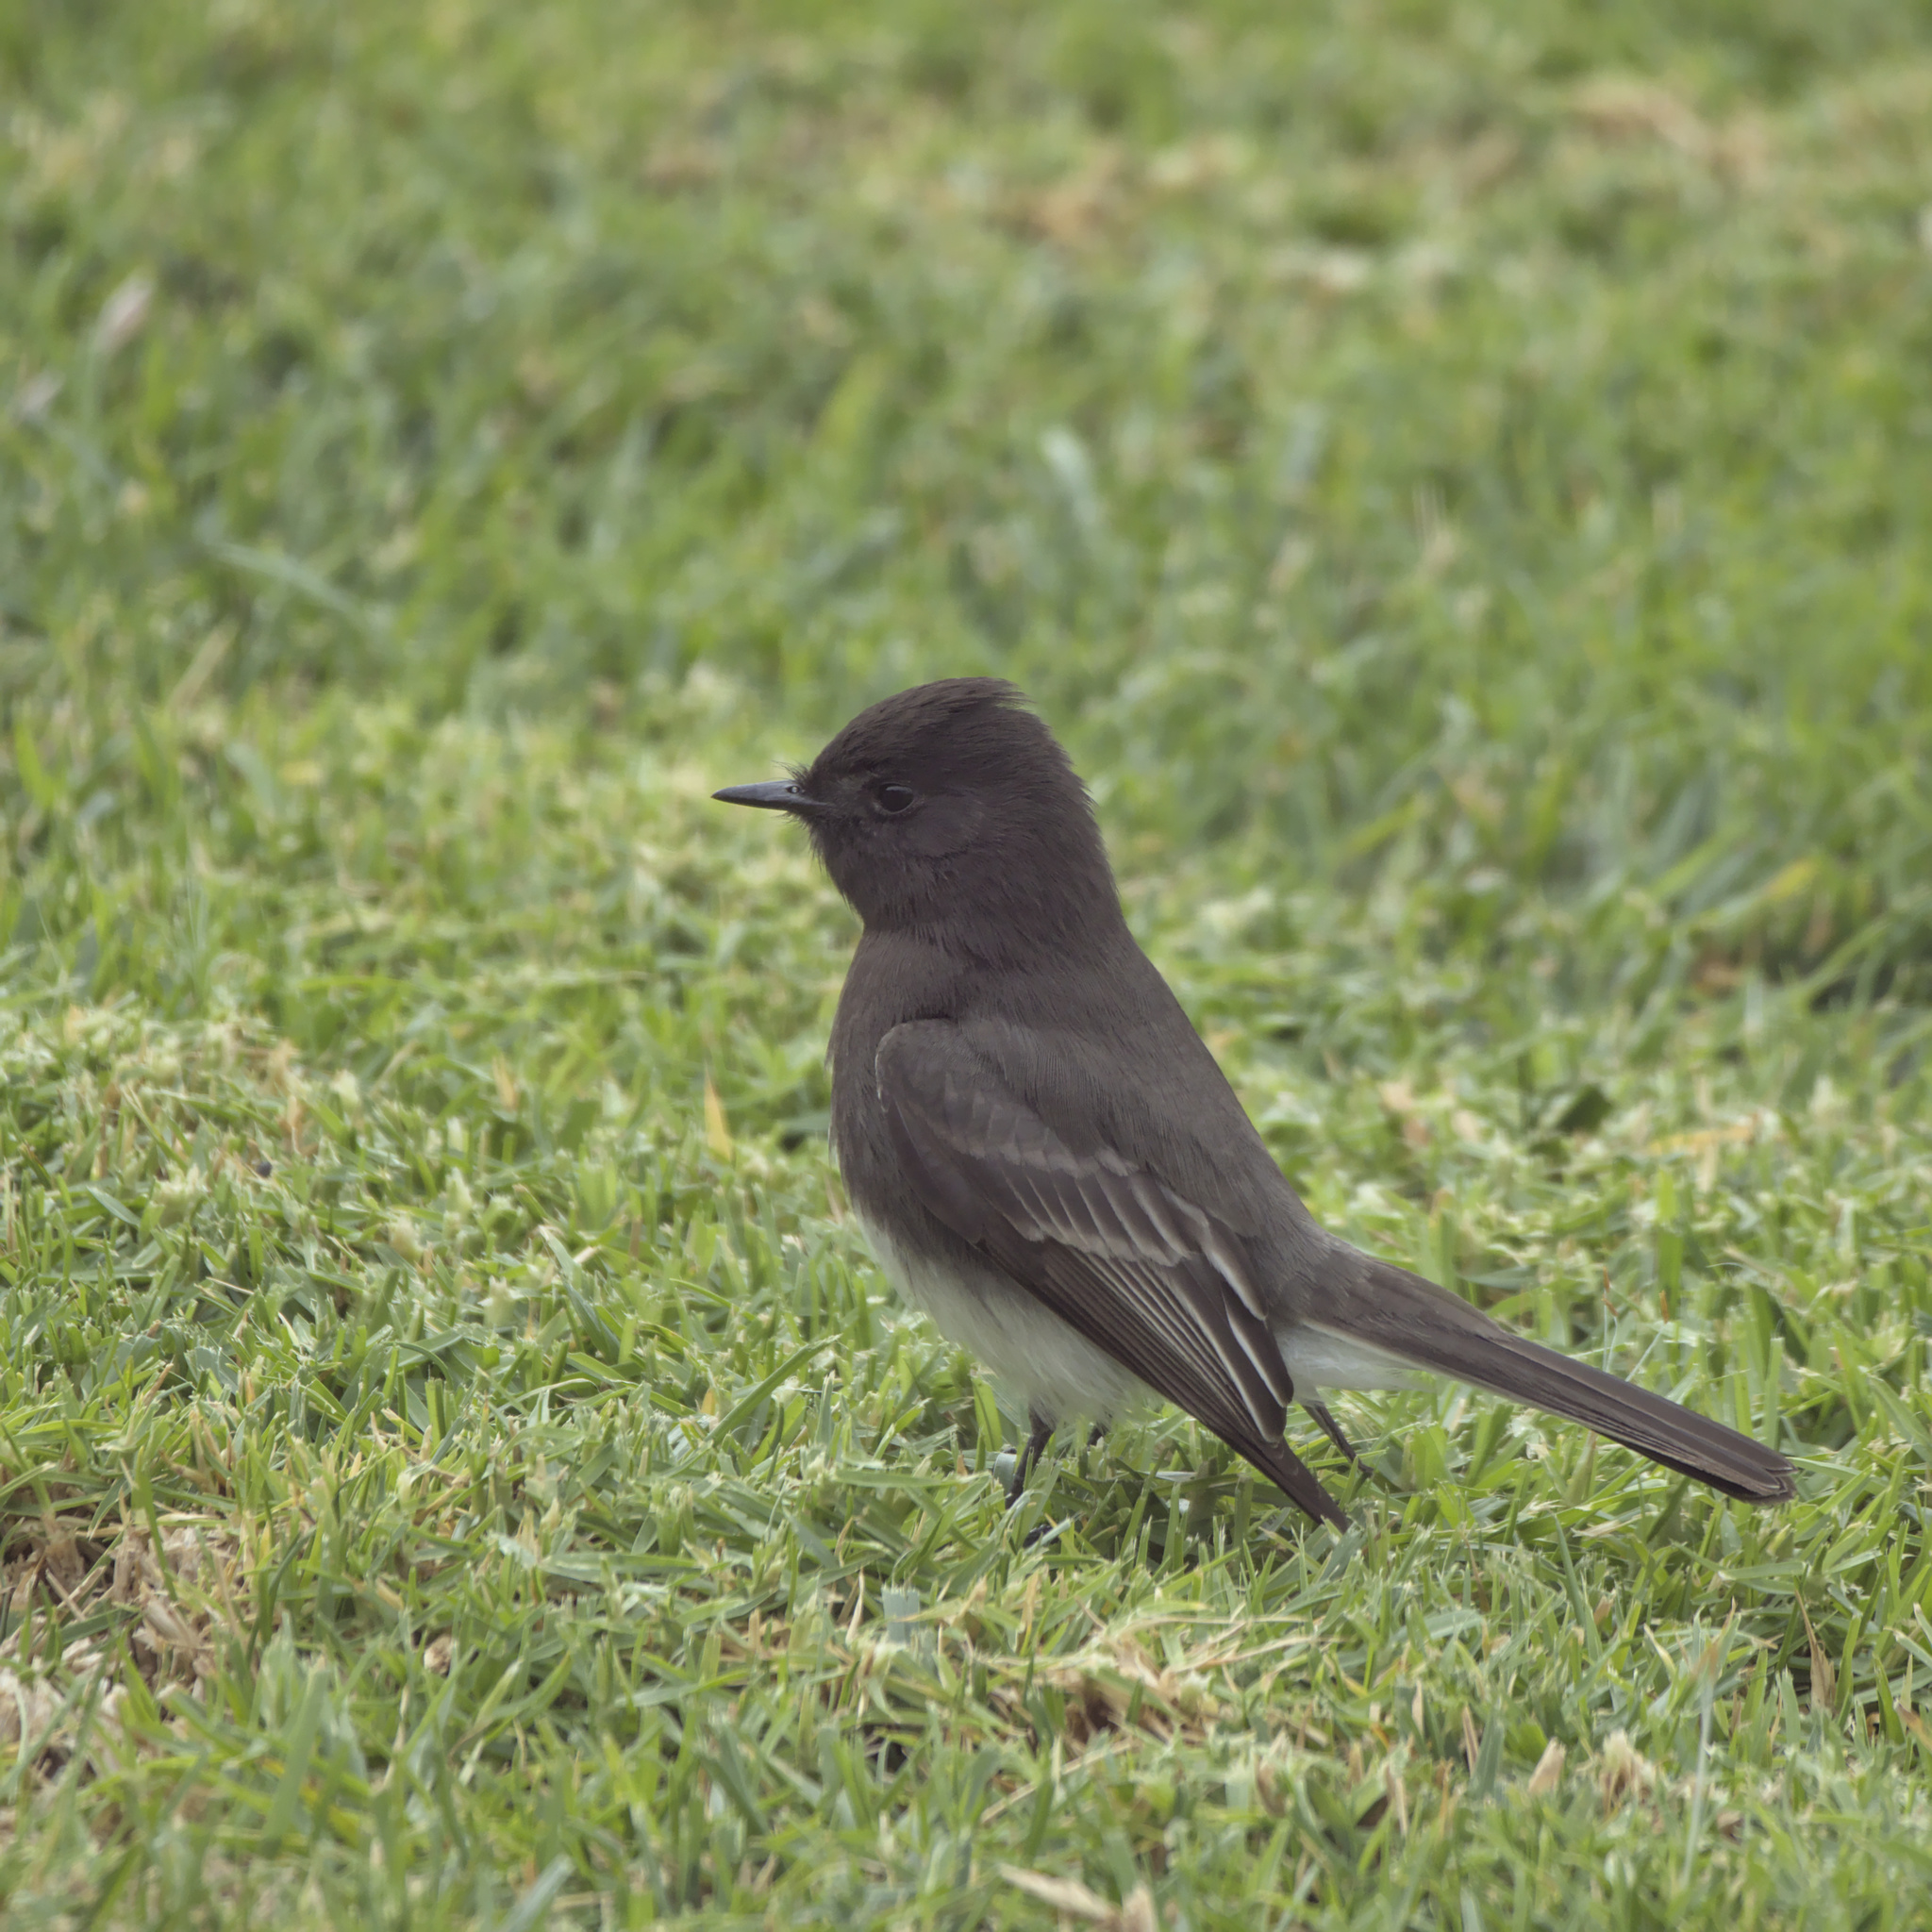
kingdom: Animalia
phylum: Chordata
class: Aves
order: Passeriformes
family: Tyrannidae
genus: Sayornis
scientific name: Sayornis nigricans
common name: Black phoebe
